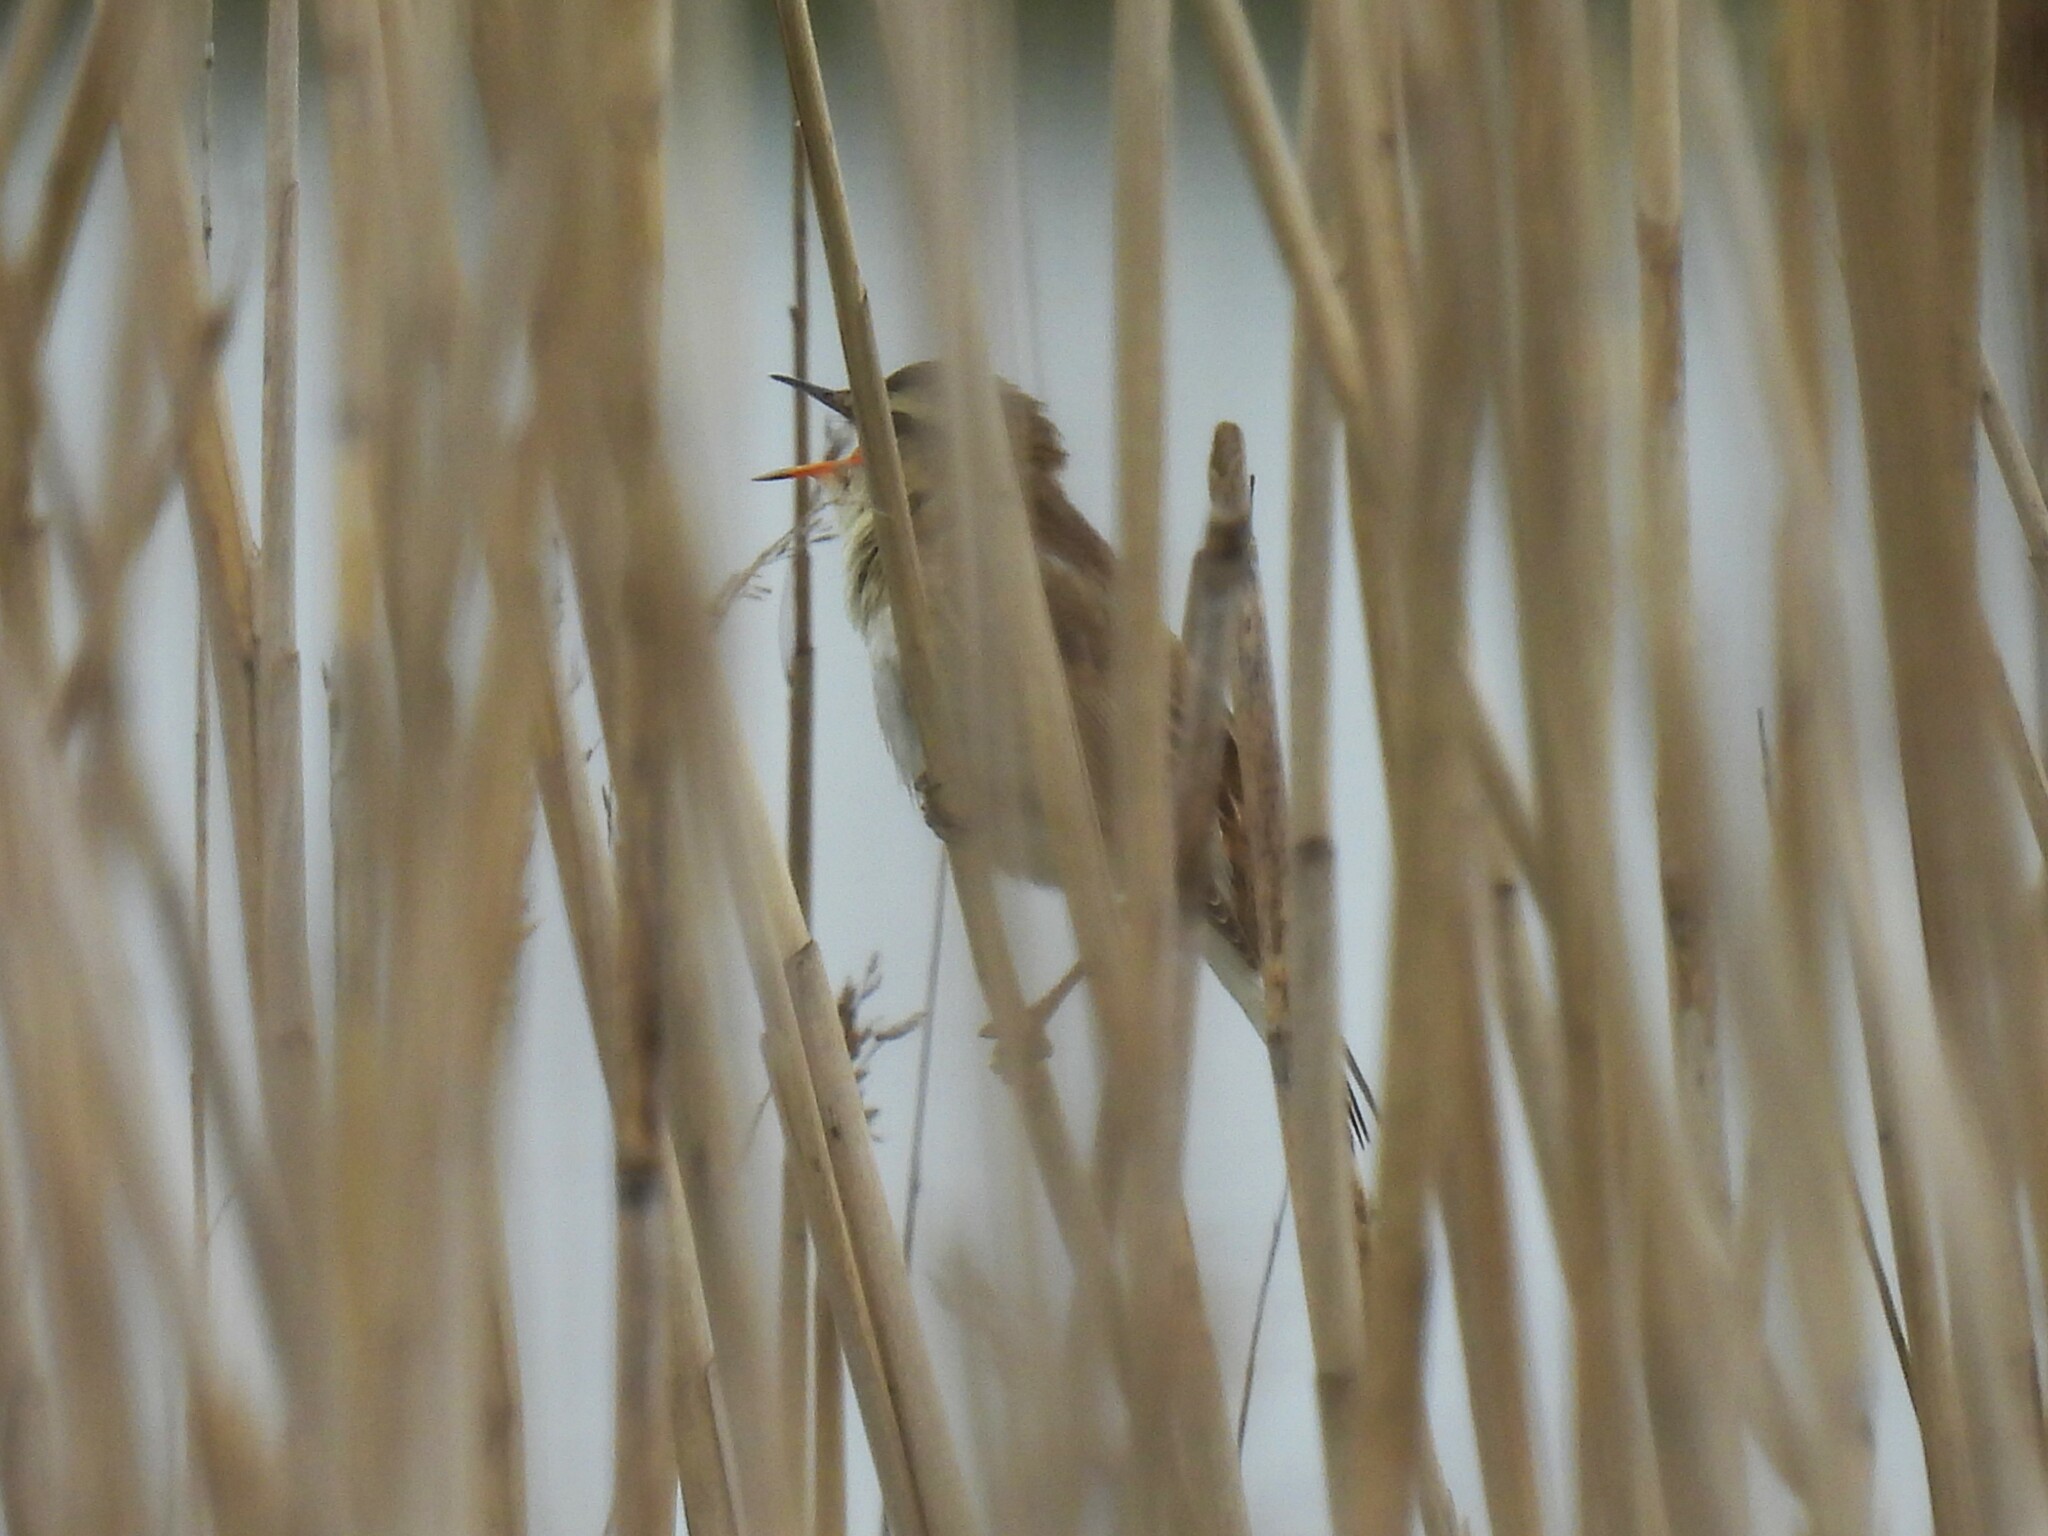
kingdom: Animalia
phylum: Chordata
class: Aves
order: Passeriformes
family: Acrocephalidae
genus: Acrocephalus
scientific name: Acrocephalus schoenobaenus
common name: Sedge warbler
